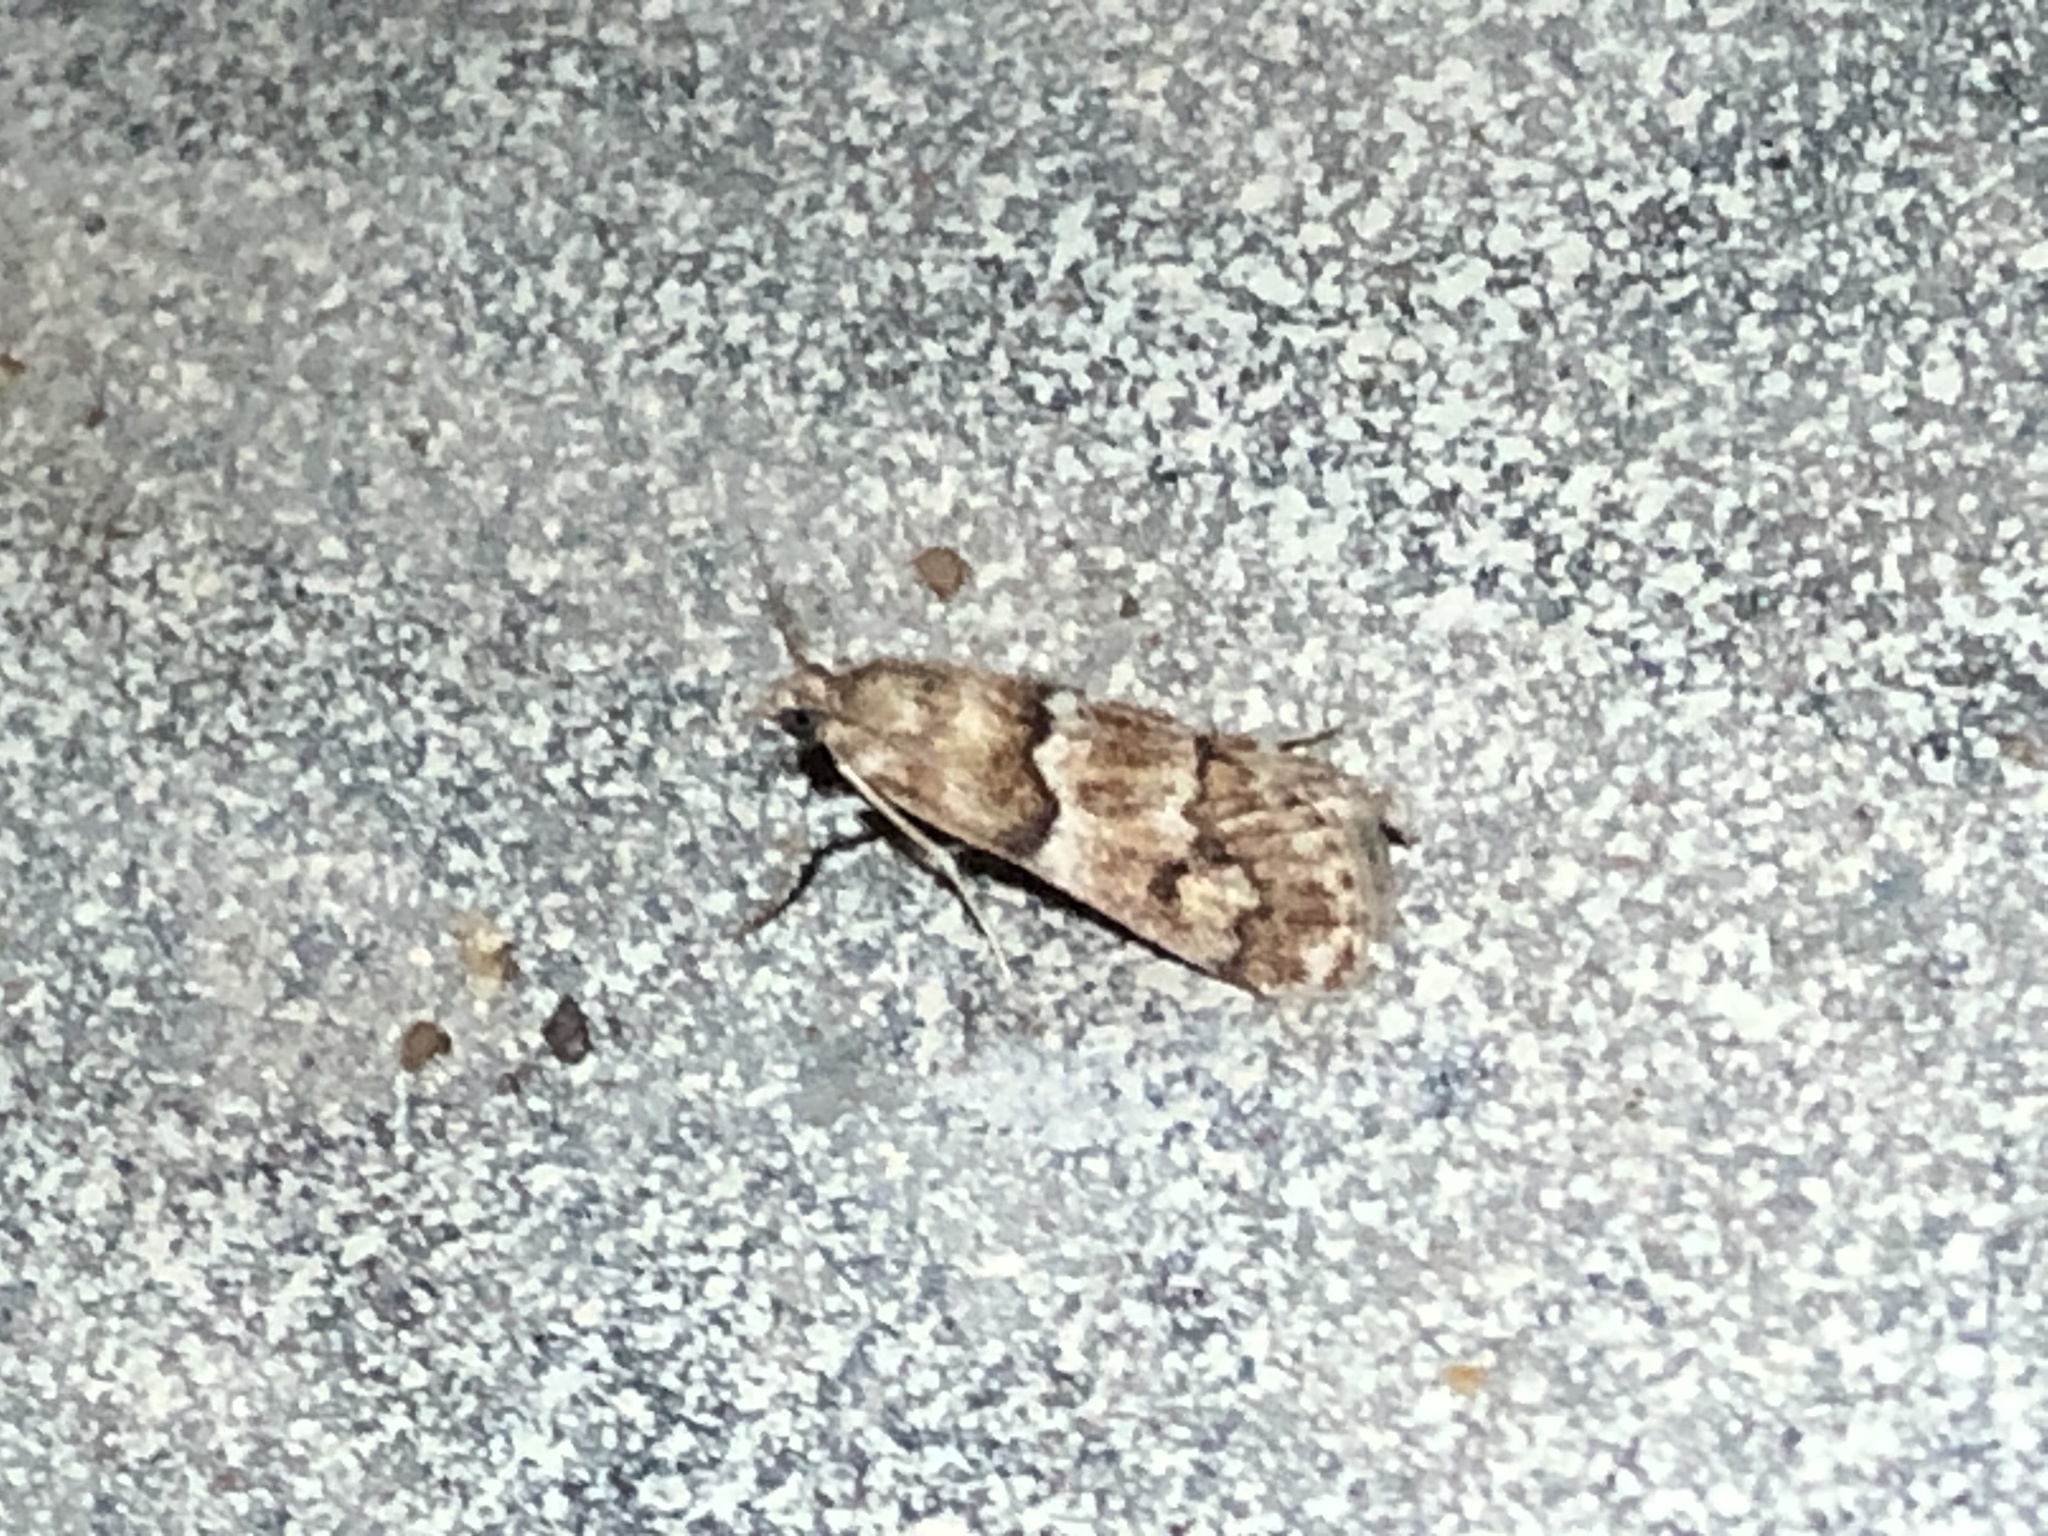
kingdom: Animalia
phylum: Arthropoda
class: Insecta
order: Lepidoptera
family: Crambidae
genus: Noctueliopsis
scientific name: Noctueliopsis brunnealis
